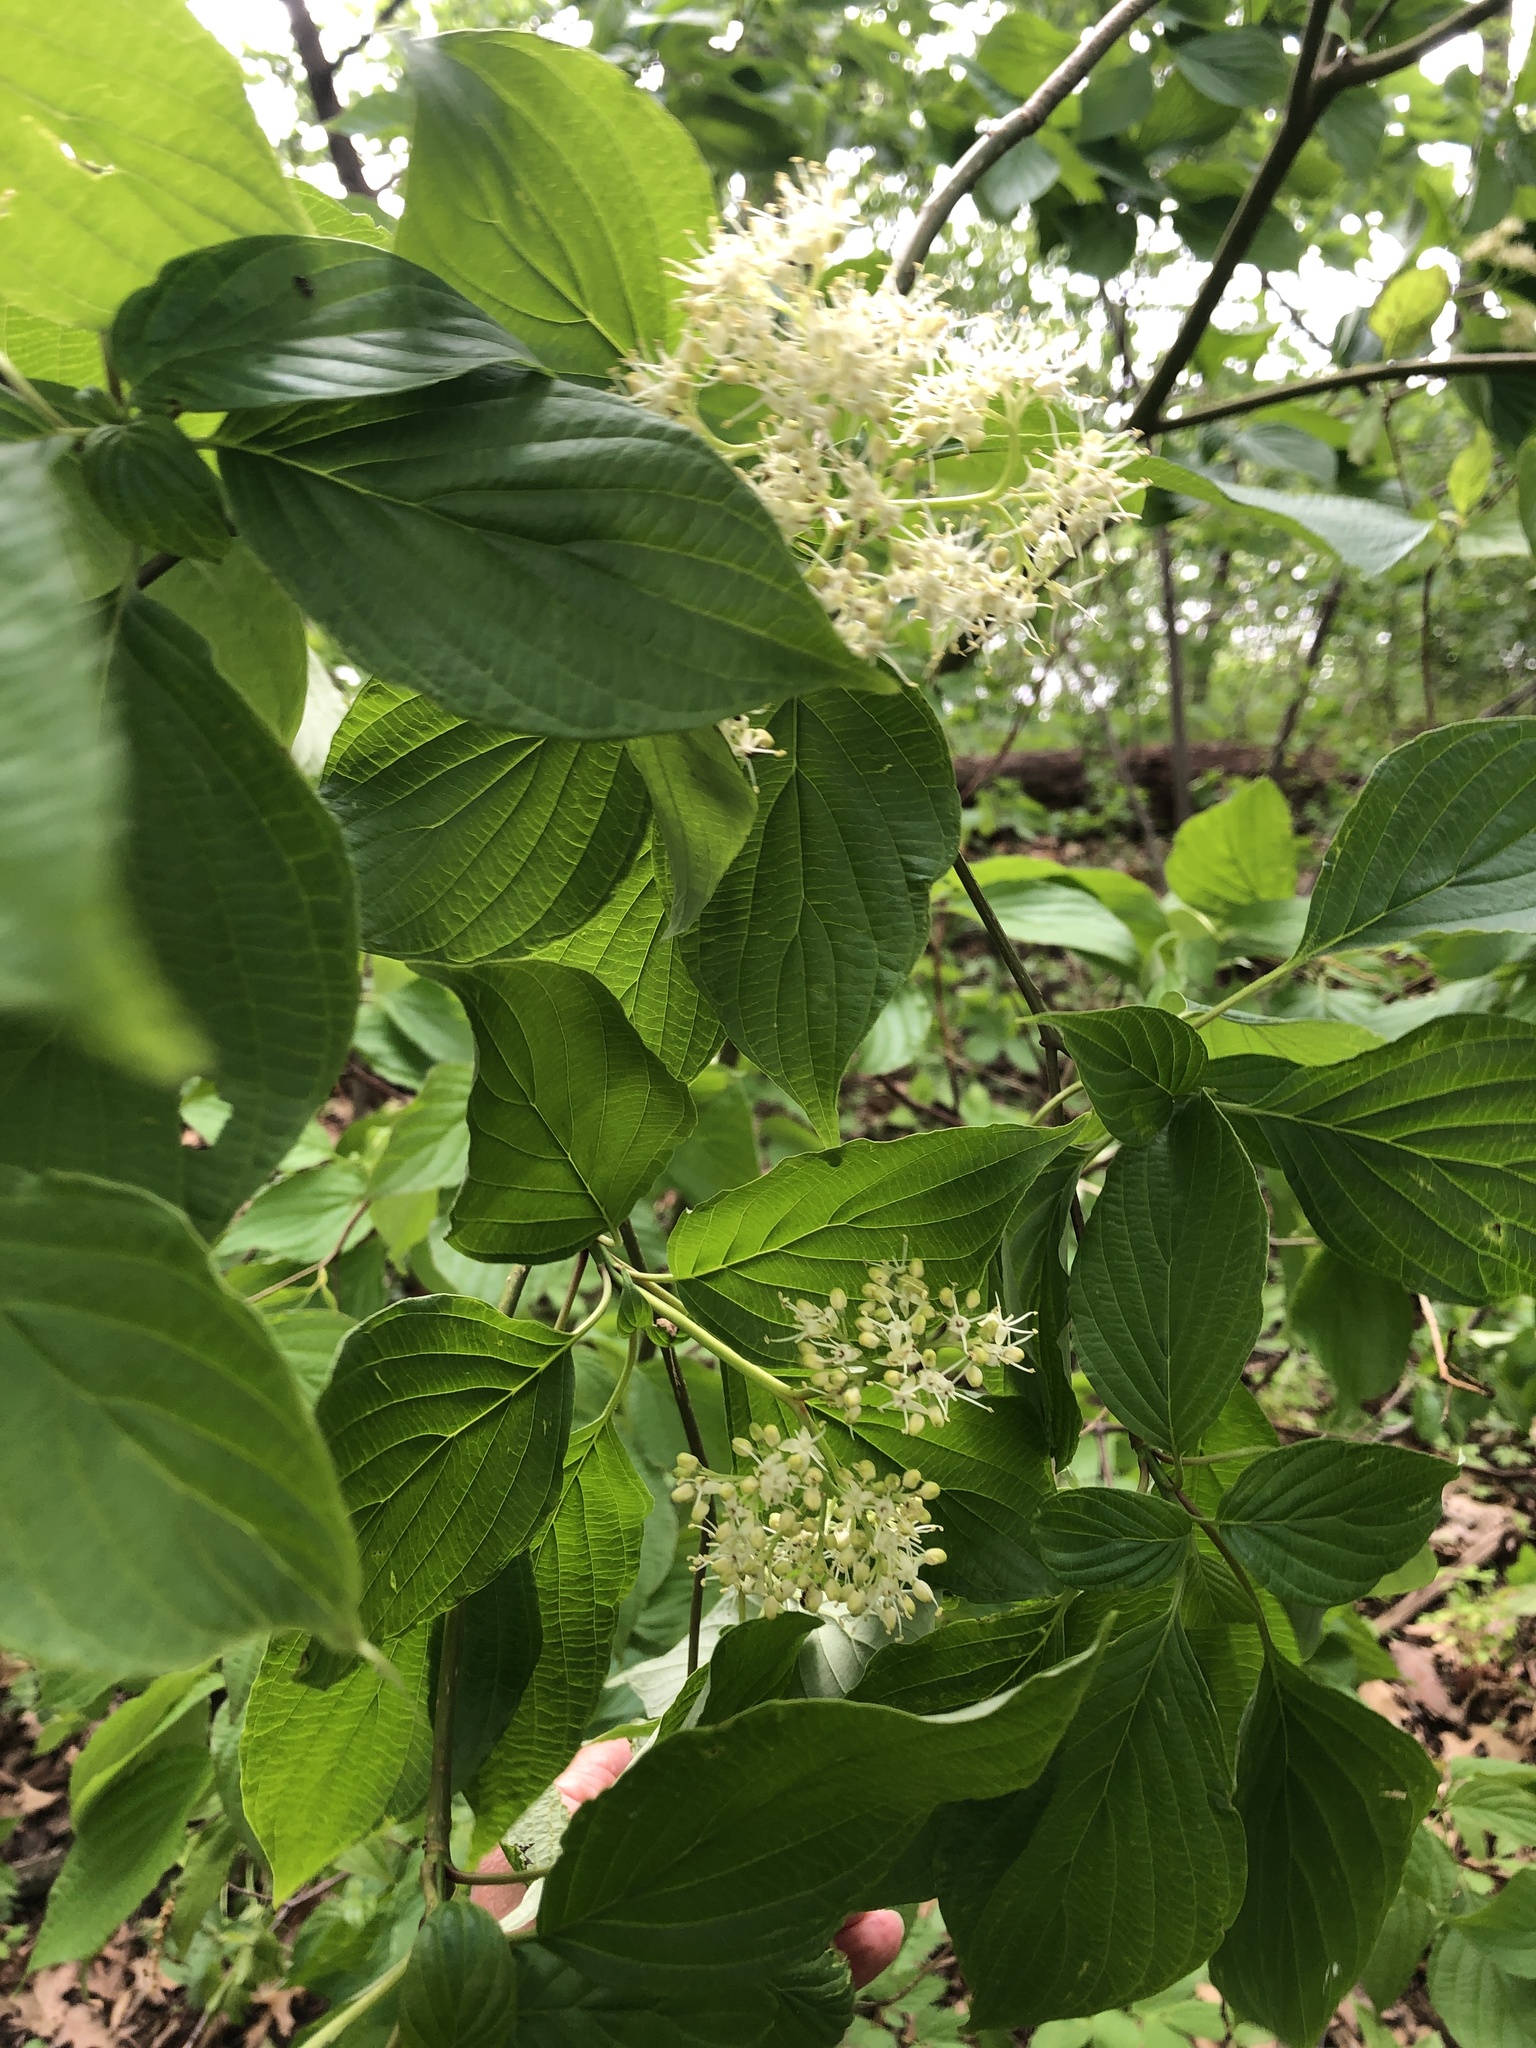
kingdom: Plantae
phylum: Tracheophyta
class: Magnoliopsida
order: Cornales
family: Cornaceae
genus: Cornus
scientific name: Cornus alternifolia
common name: Pagoda dogwood
